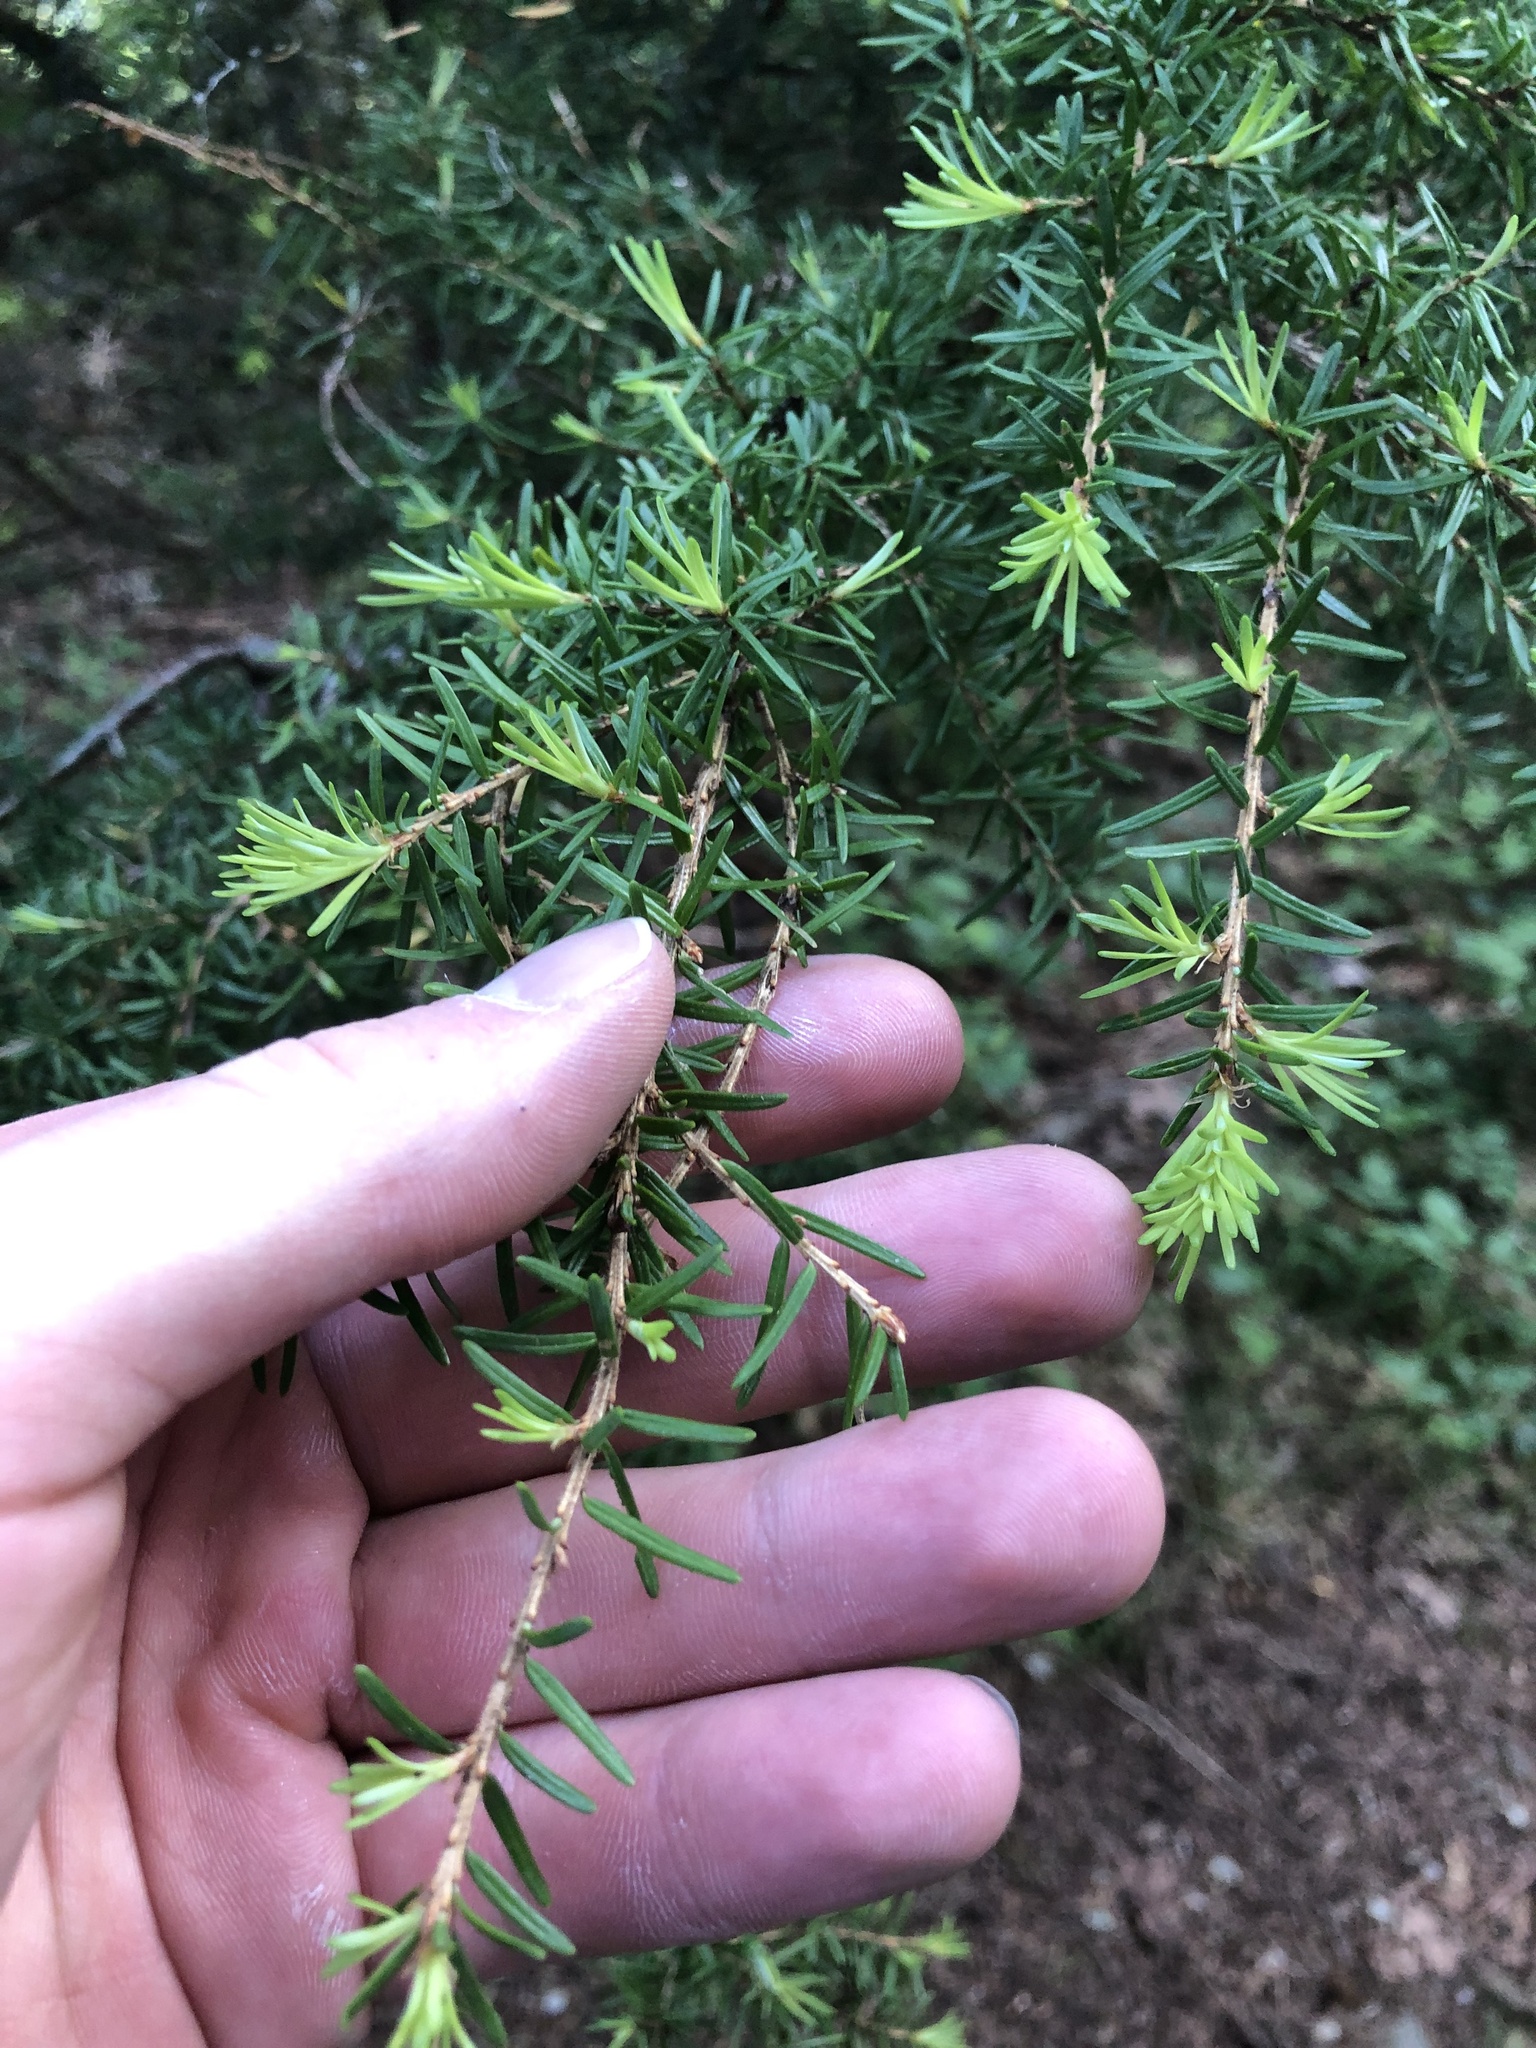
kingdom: Plantae
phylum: Tracheophyta
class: Pinopsida
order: Pinales
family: Pinaceae
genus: Tsuga
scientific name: Tsuga mertensiana
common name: Mountain hemlock
